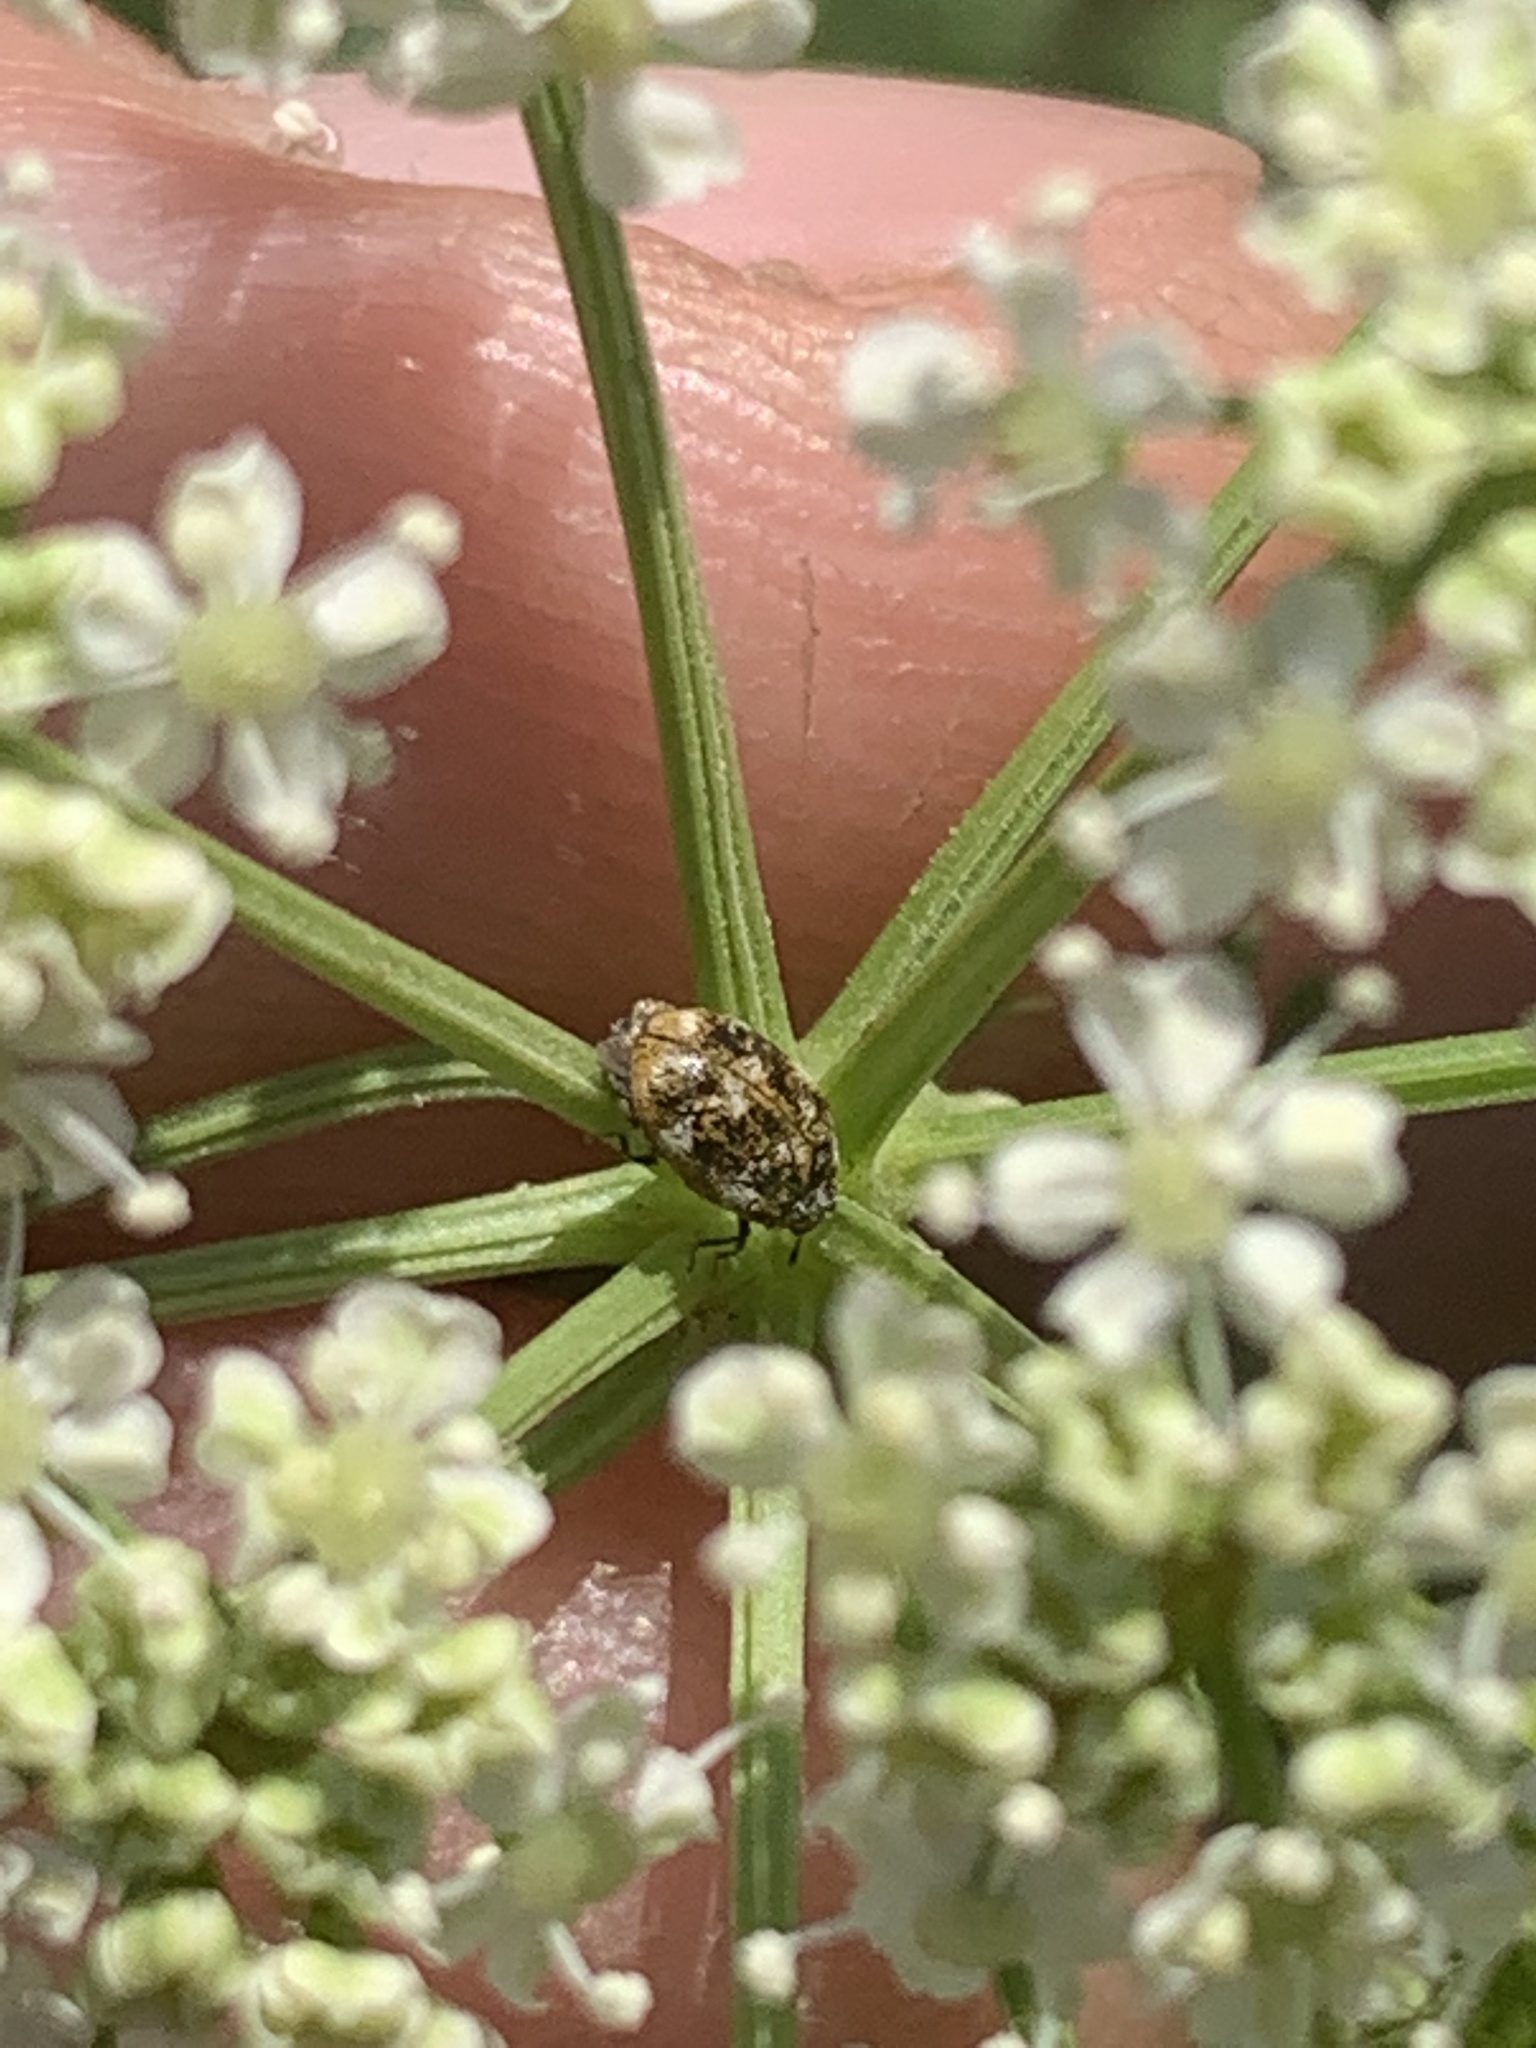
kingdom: Animalia
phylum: Arthropoda
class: Insecta
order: Coleoptera
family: Dermestidae
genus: Anthrenus
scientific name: Anthrenus verbasci
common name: Varied carpet beetle
